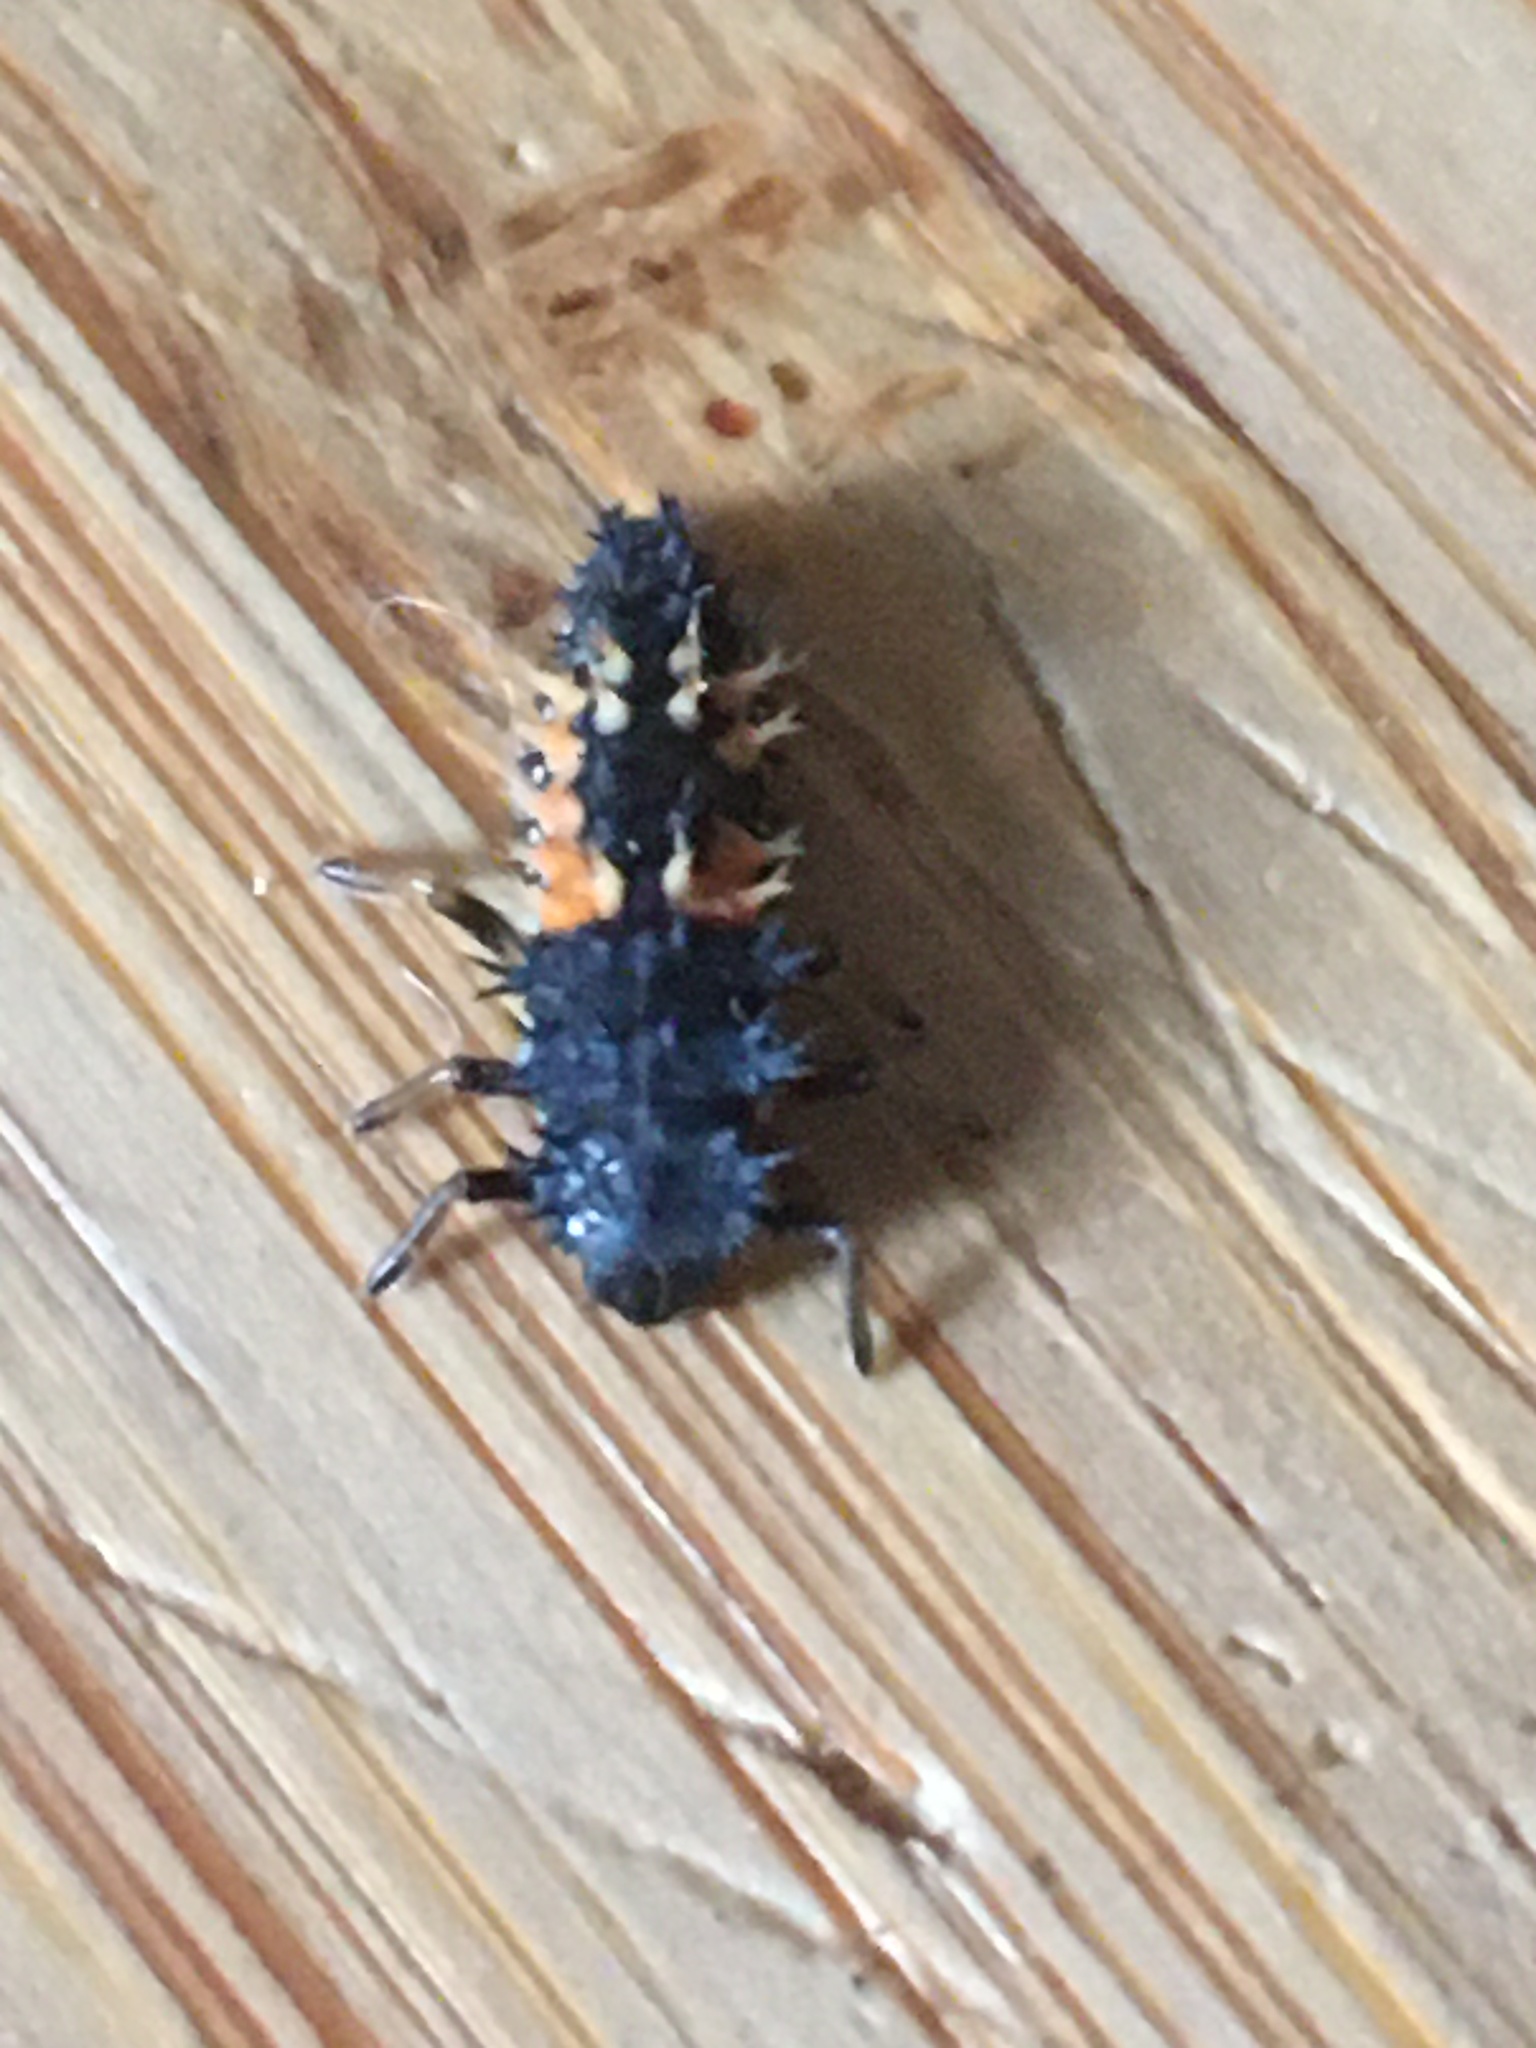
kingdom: Animalia
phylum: Arthropoda
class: Insecta
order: Coleoptera
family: Coccinellidae
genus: Harmonia
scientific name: Harmonia axyridis
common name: Harlequin ladybird
